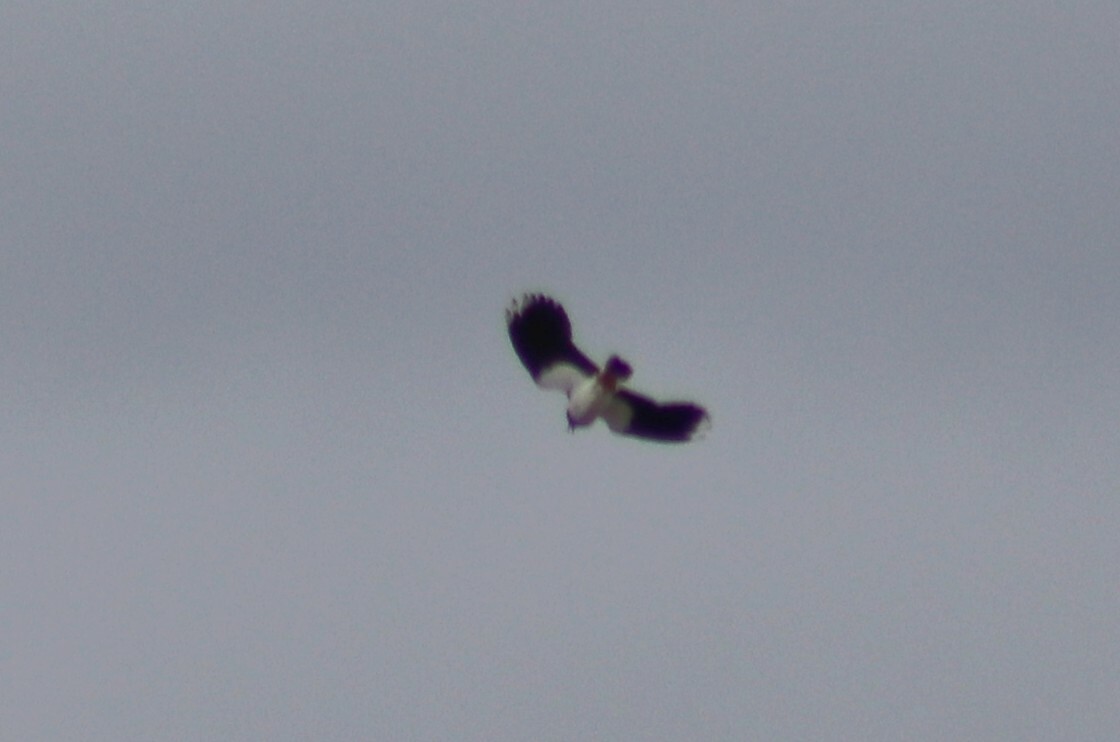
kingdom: Animalia
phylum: Chordata
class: Aves
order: Charadriiformes
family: Charadriidae
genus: Vanellus
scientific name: Vanellus vanellus
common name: Northern lapwing
